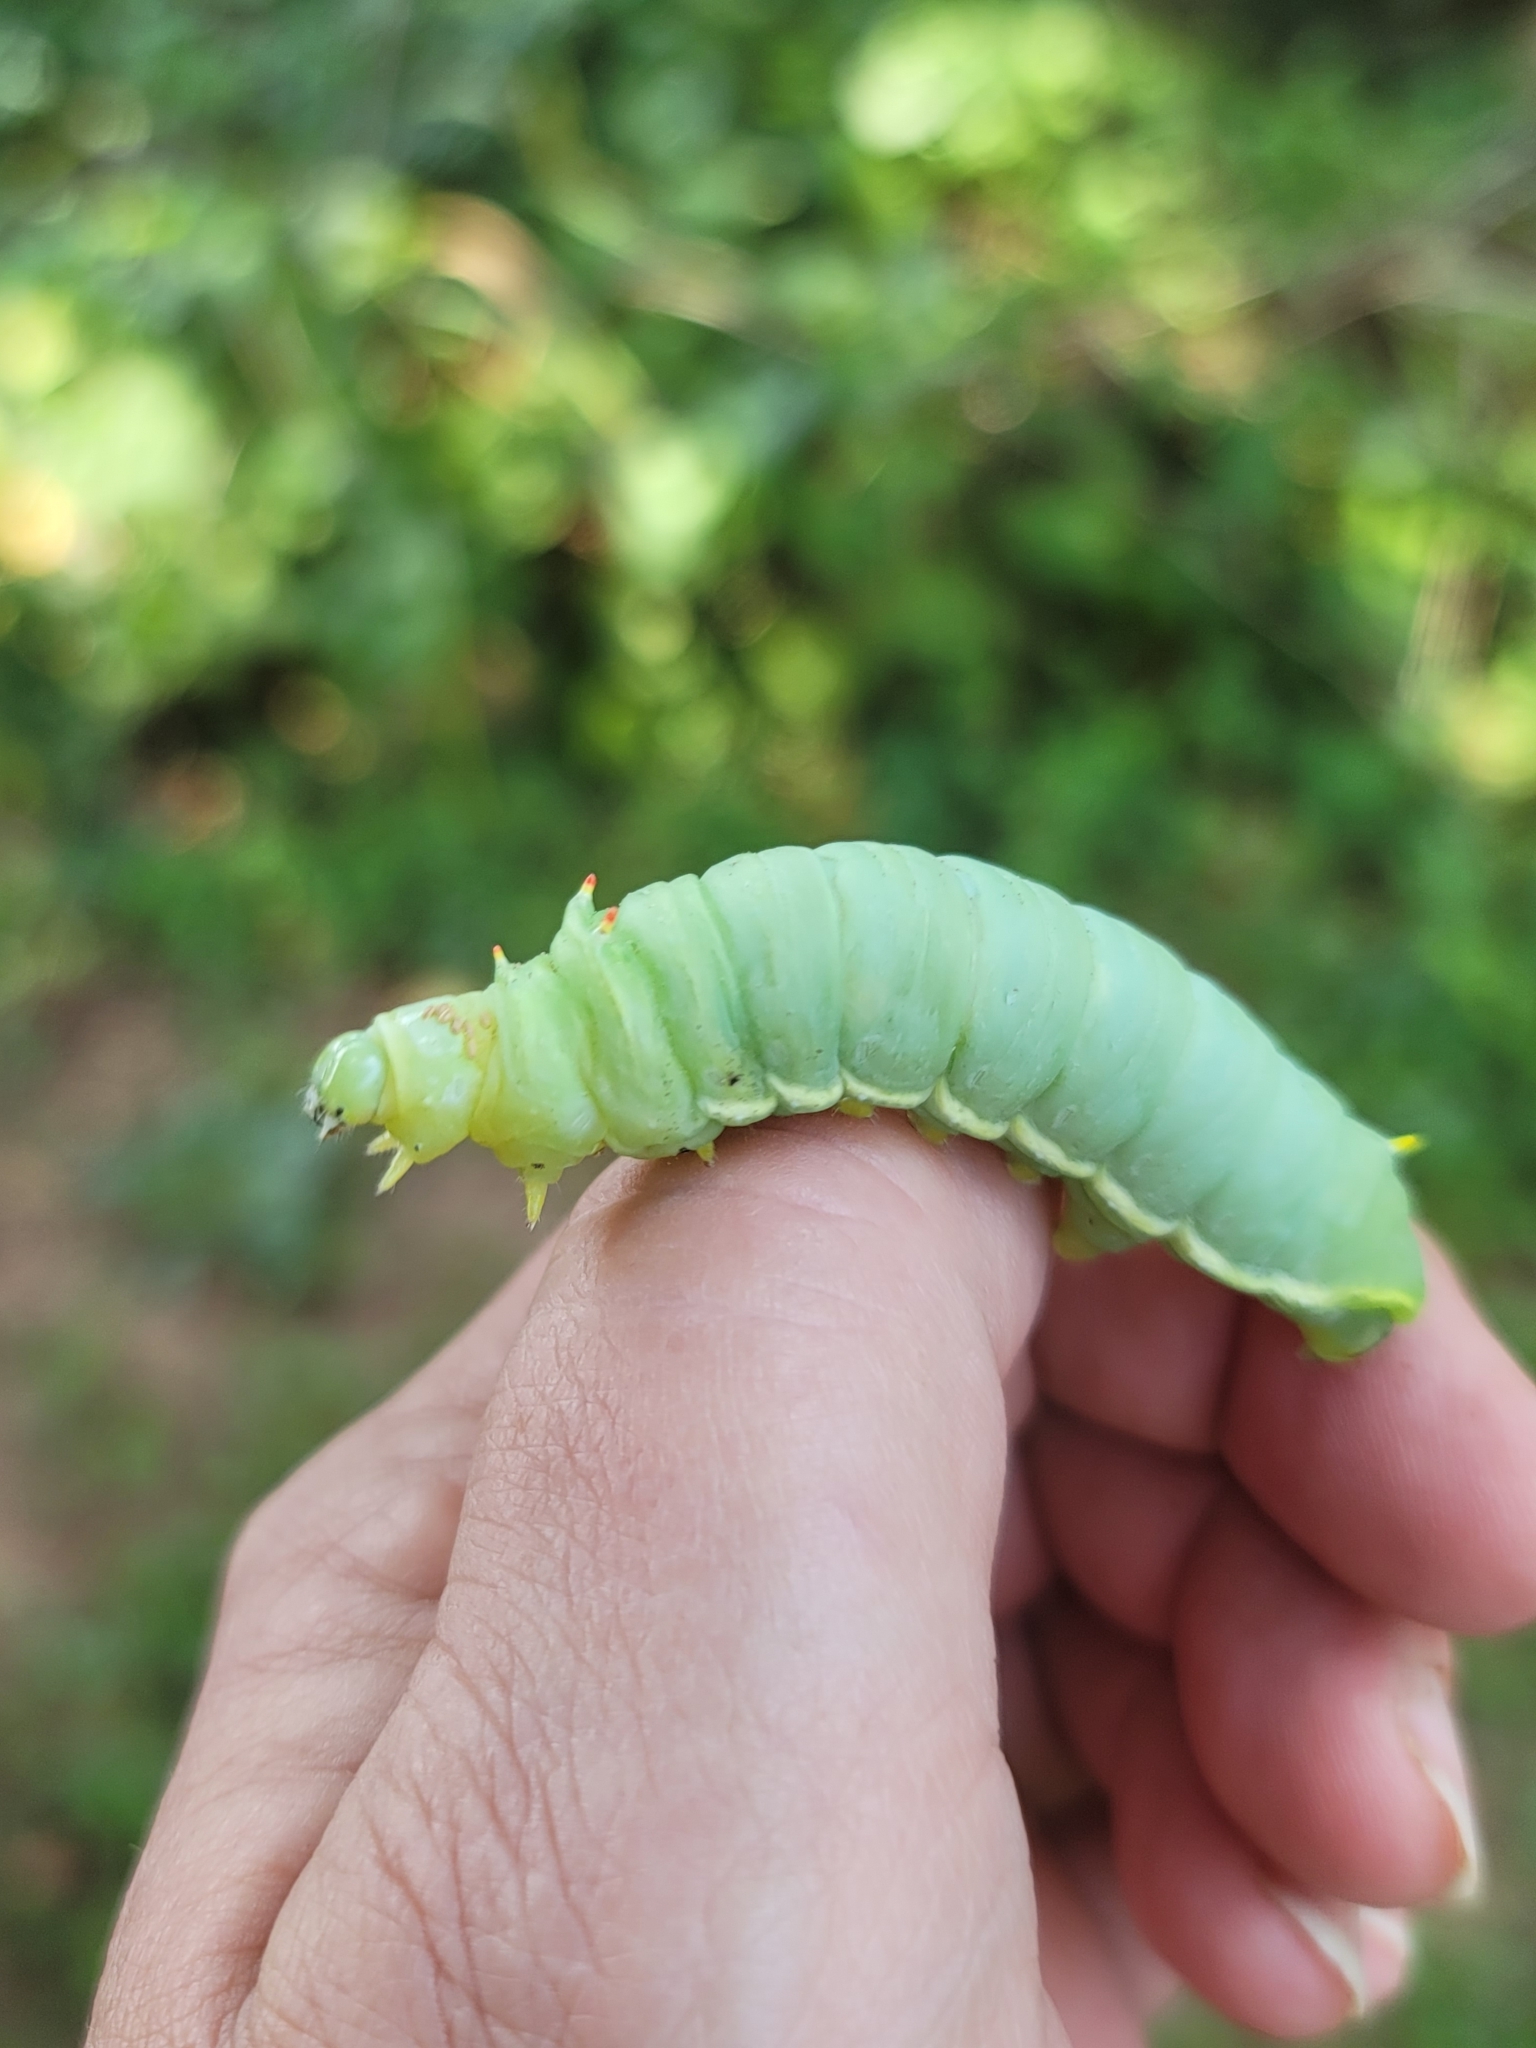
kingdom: Animalia
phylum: Arthropoda
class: Insecta
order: Lepidoptera
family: Saturniidae
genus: Callosamia
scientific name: Callosamia angulifera
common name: Tulip tree silkmoth
